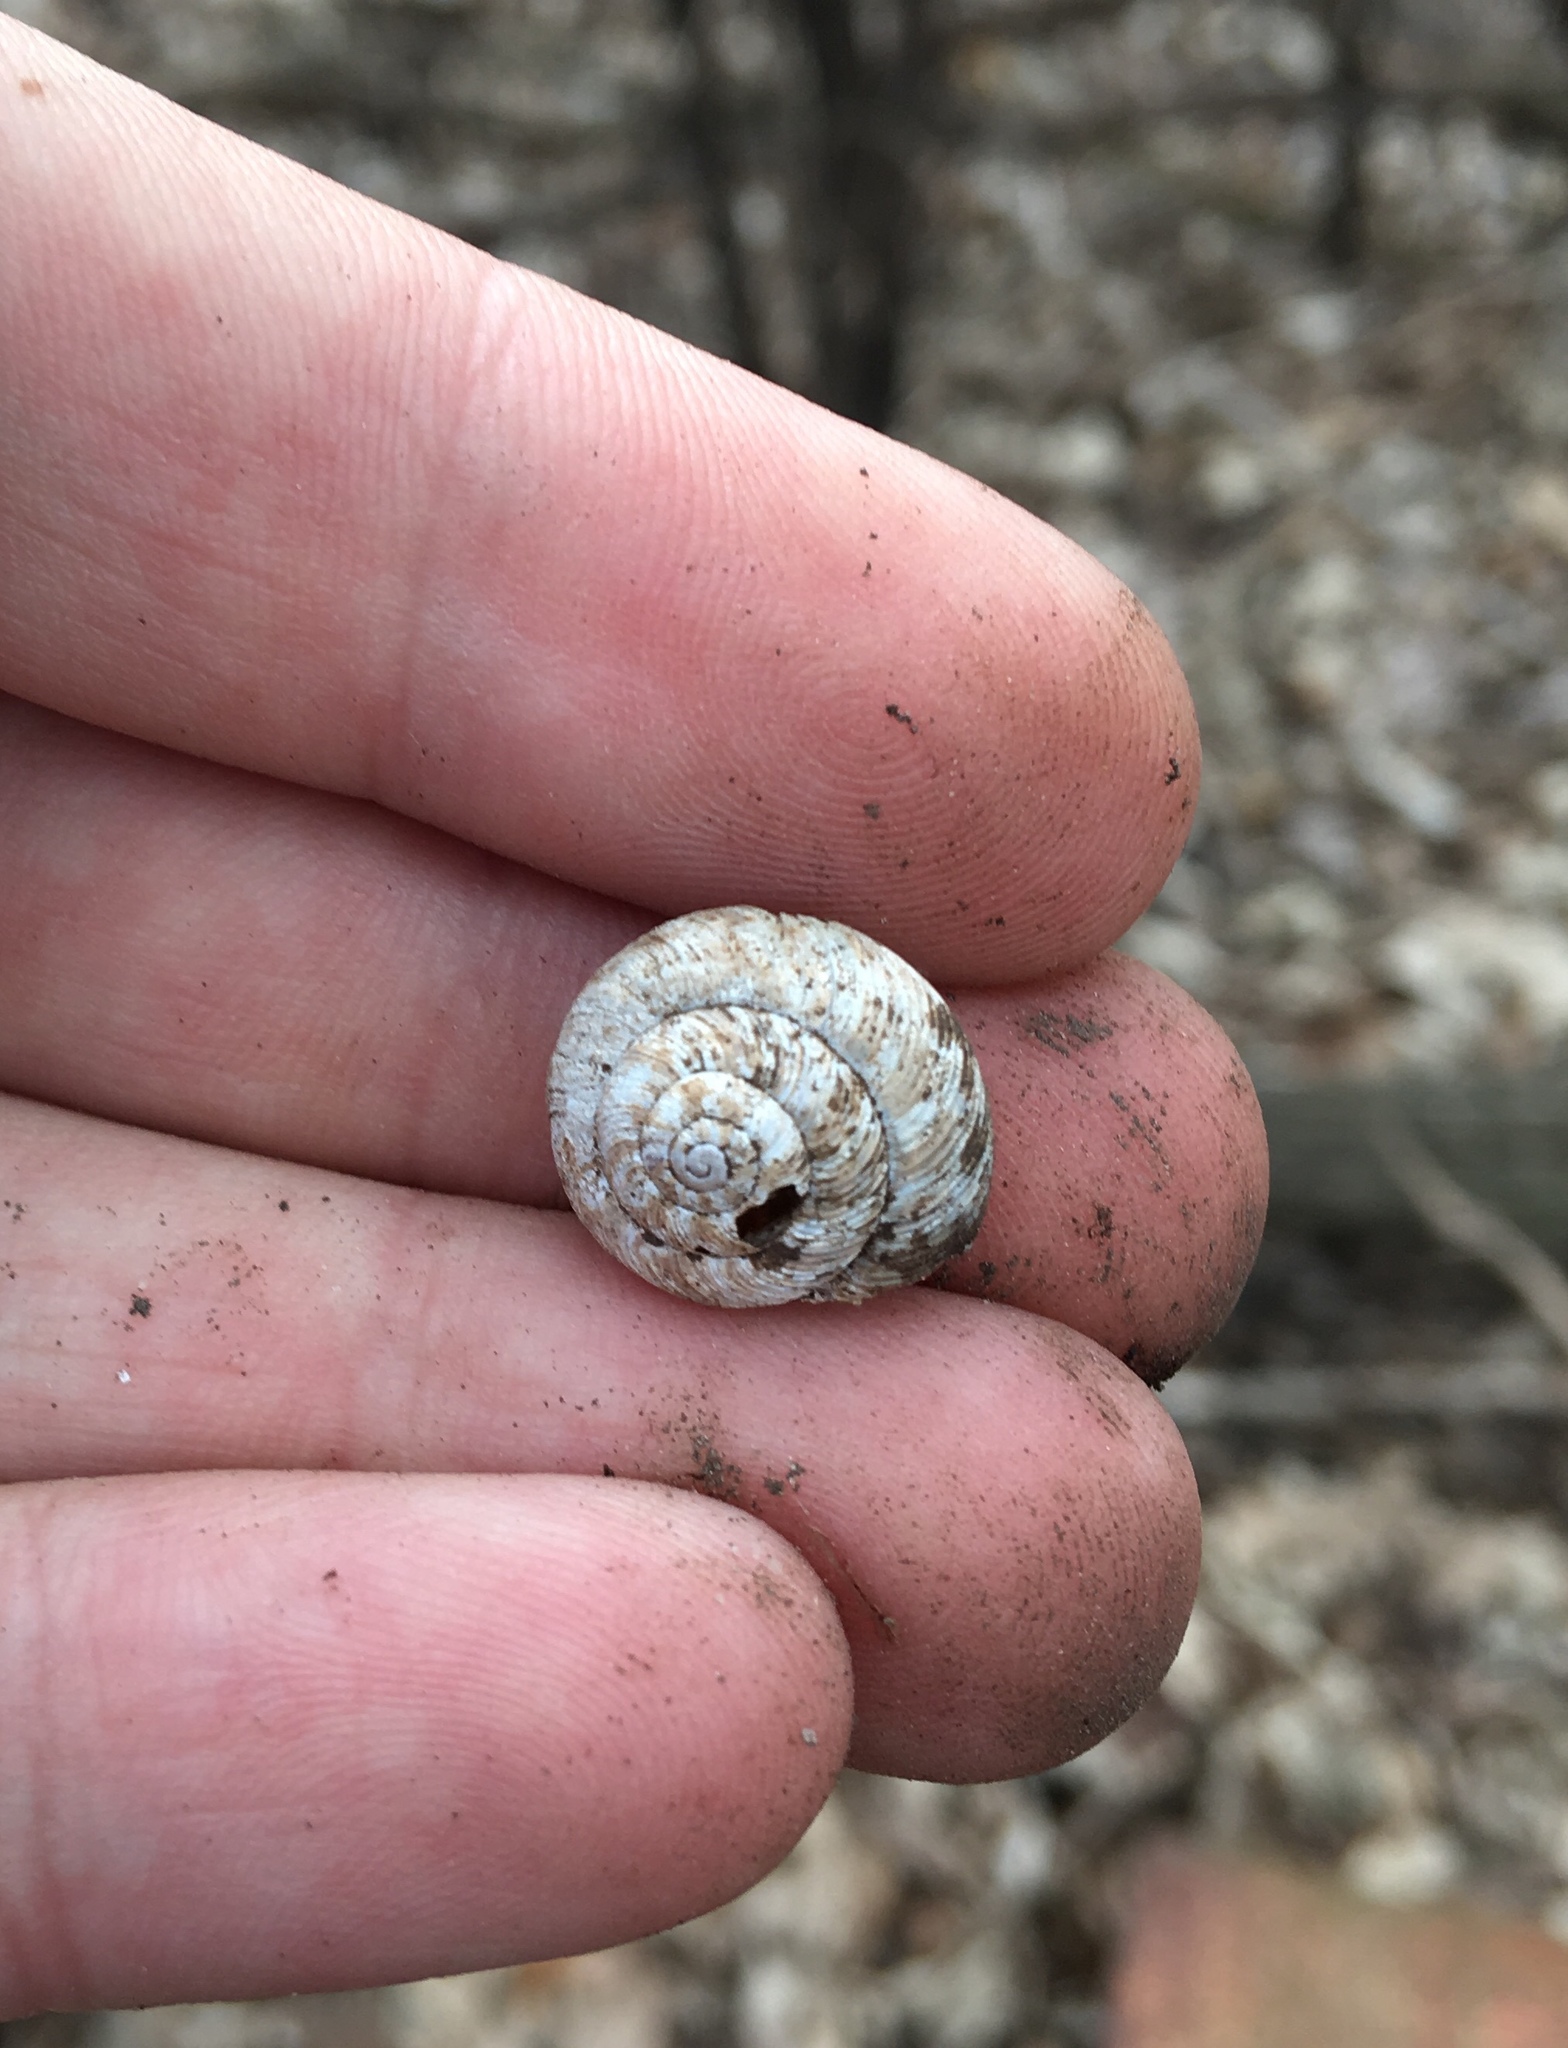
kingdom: Animalia
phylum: Mollusca
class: Gastropoda
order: Stylommatophora
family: Discidae
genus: Anguispira
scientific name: Anguispira alternata
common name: Flamed tigersnail
